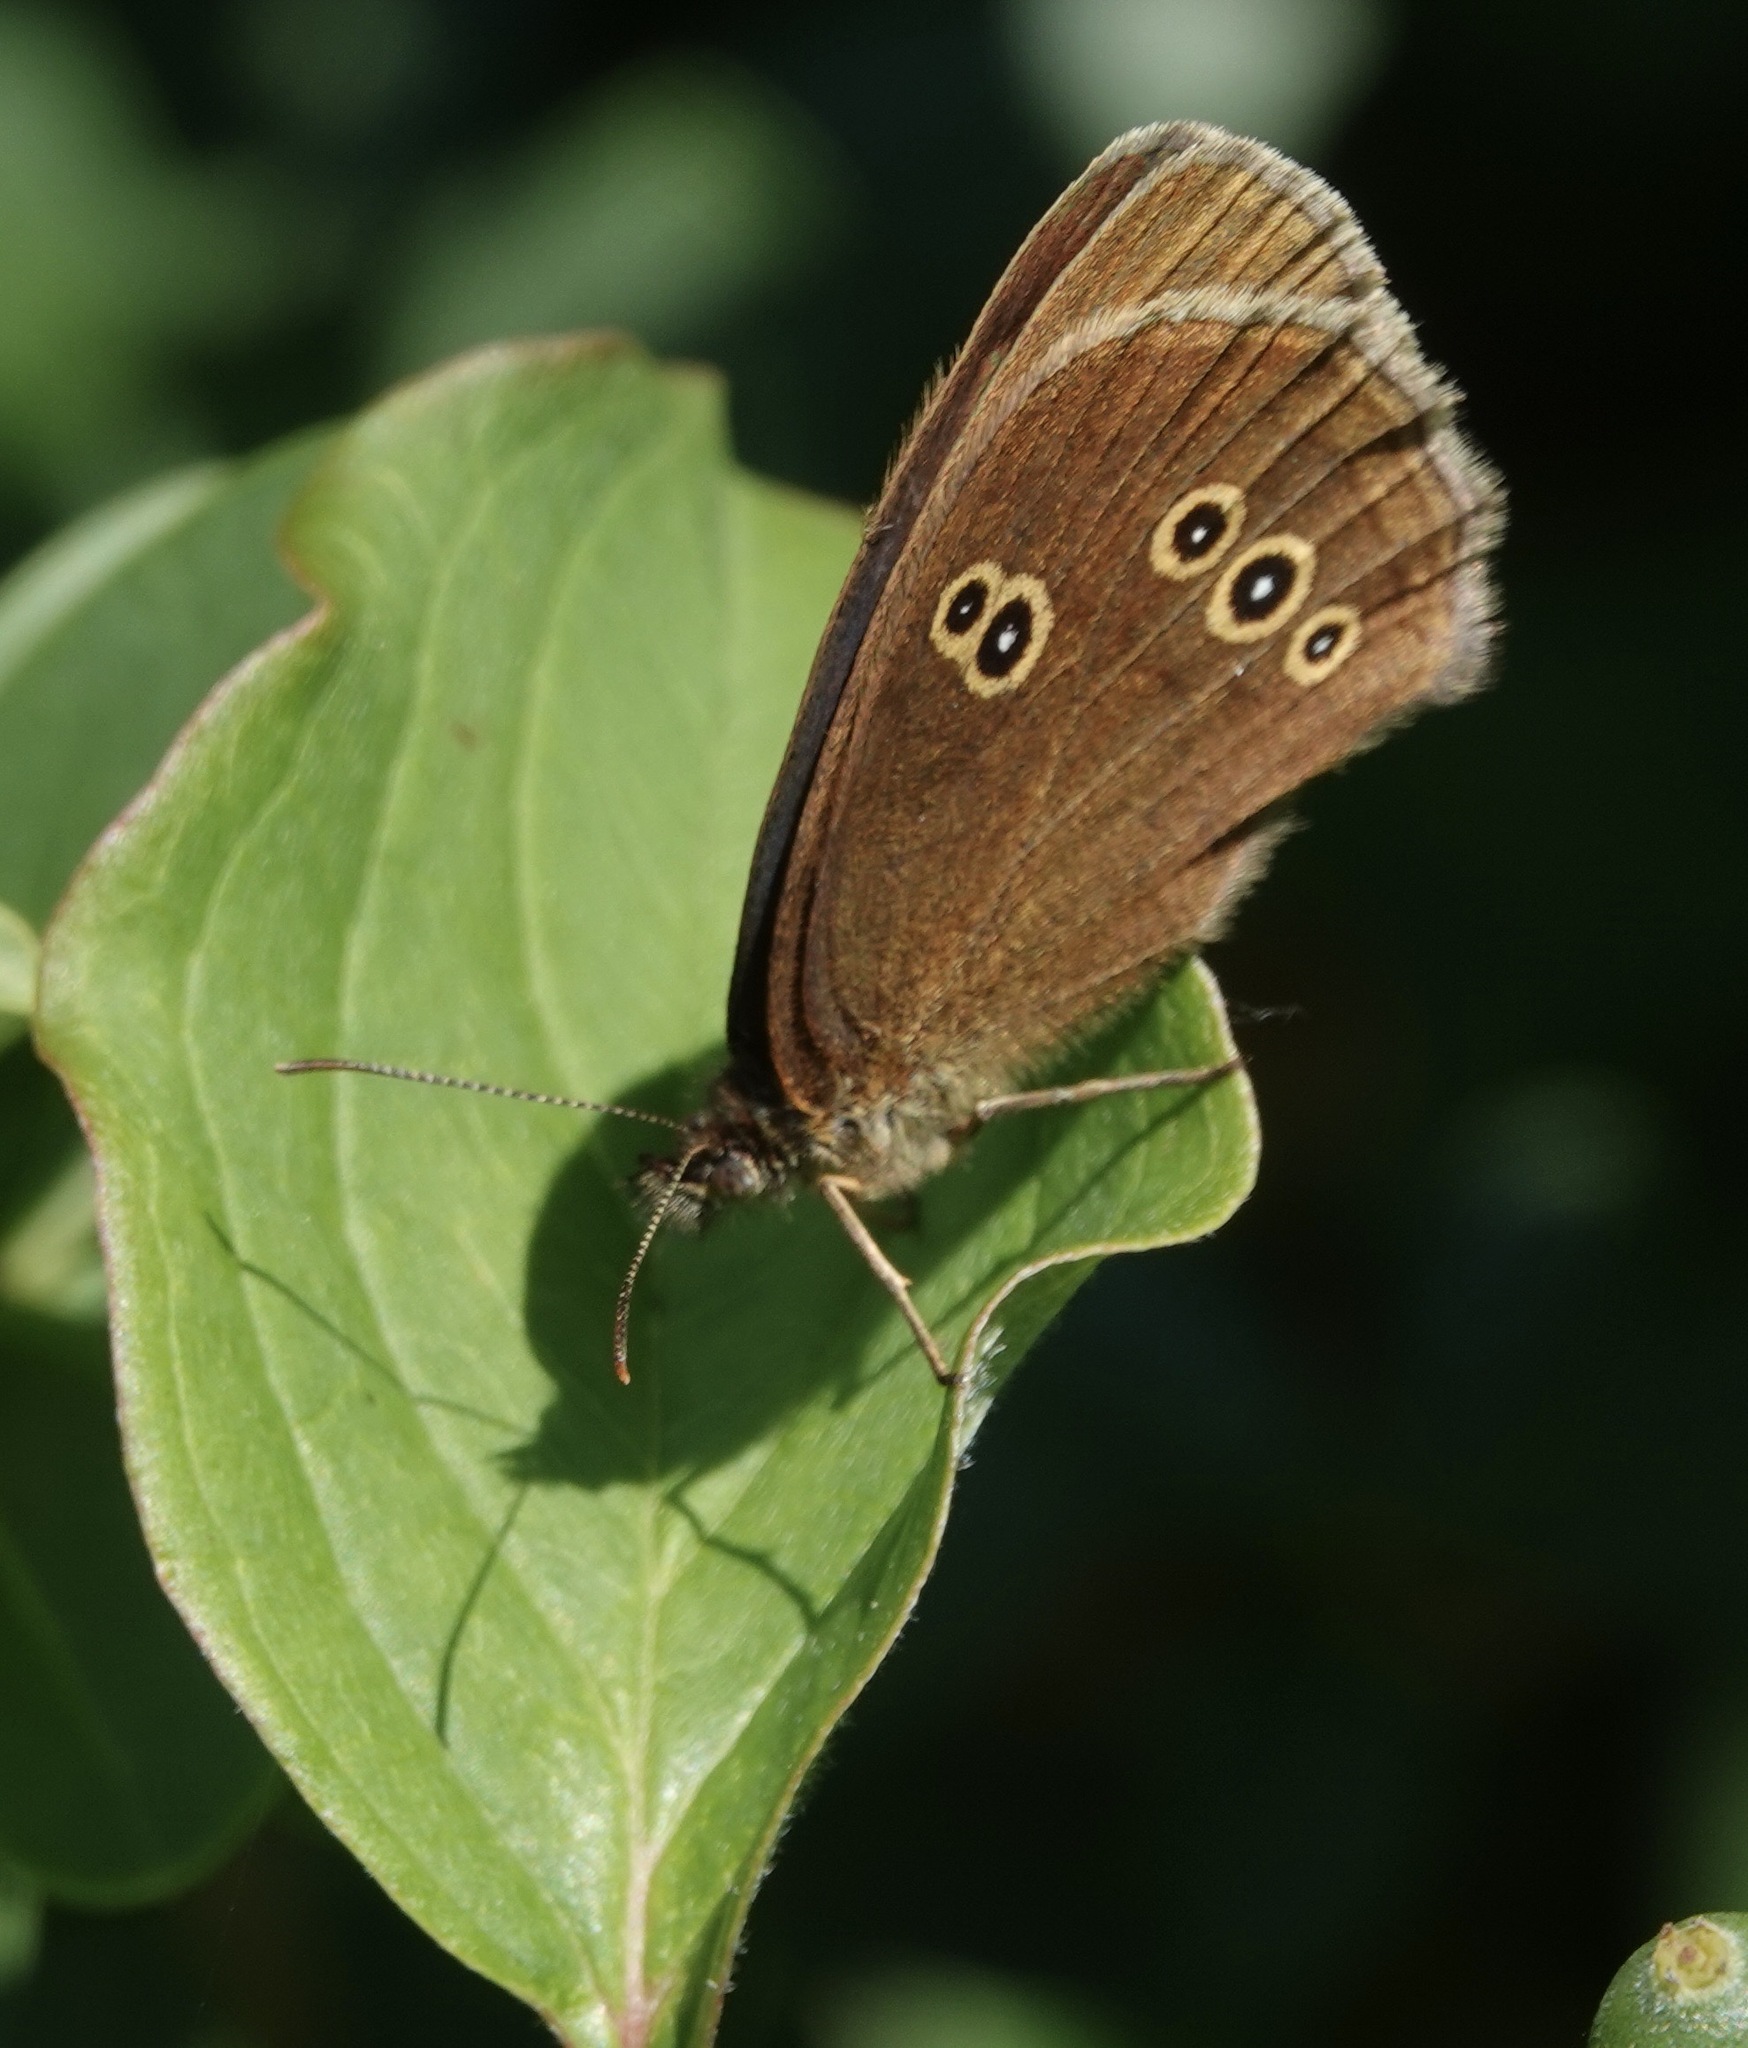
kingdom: Animalia
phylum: Arthropoda
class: Insecta
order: Lepidoptera
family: Nymphalidae
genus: Aphantopus
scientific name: Aphantopus hyperantus
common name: Ringlet
